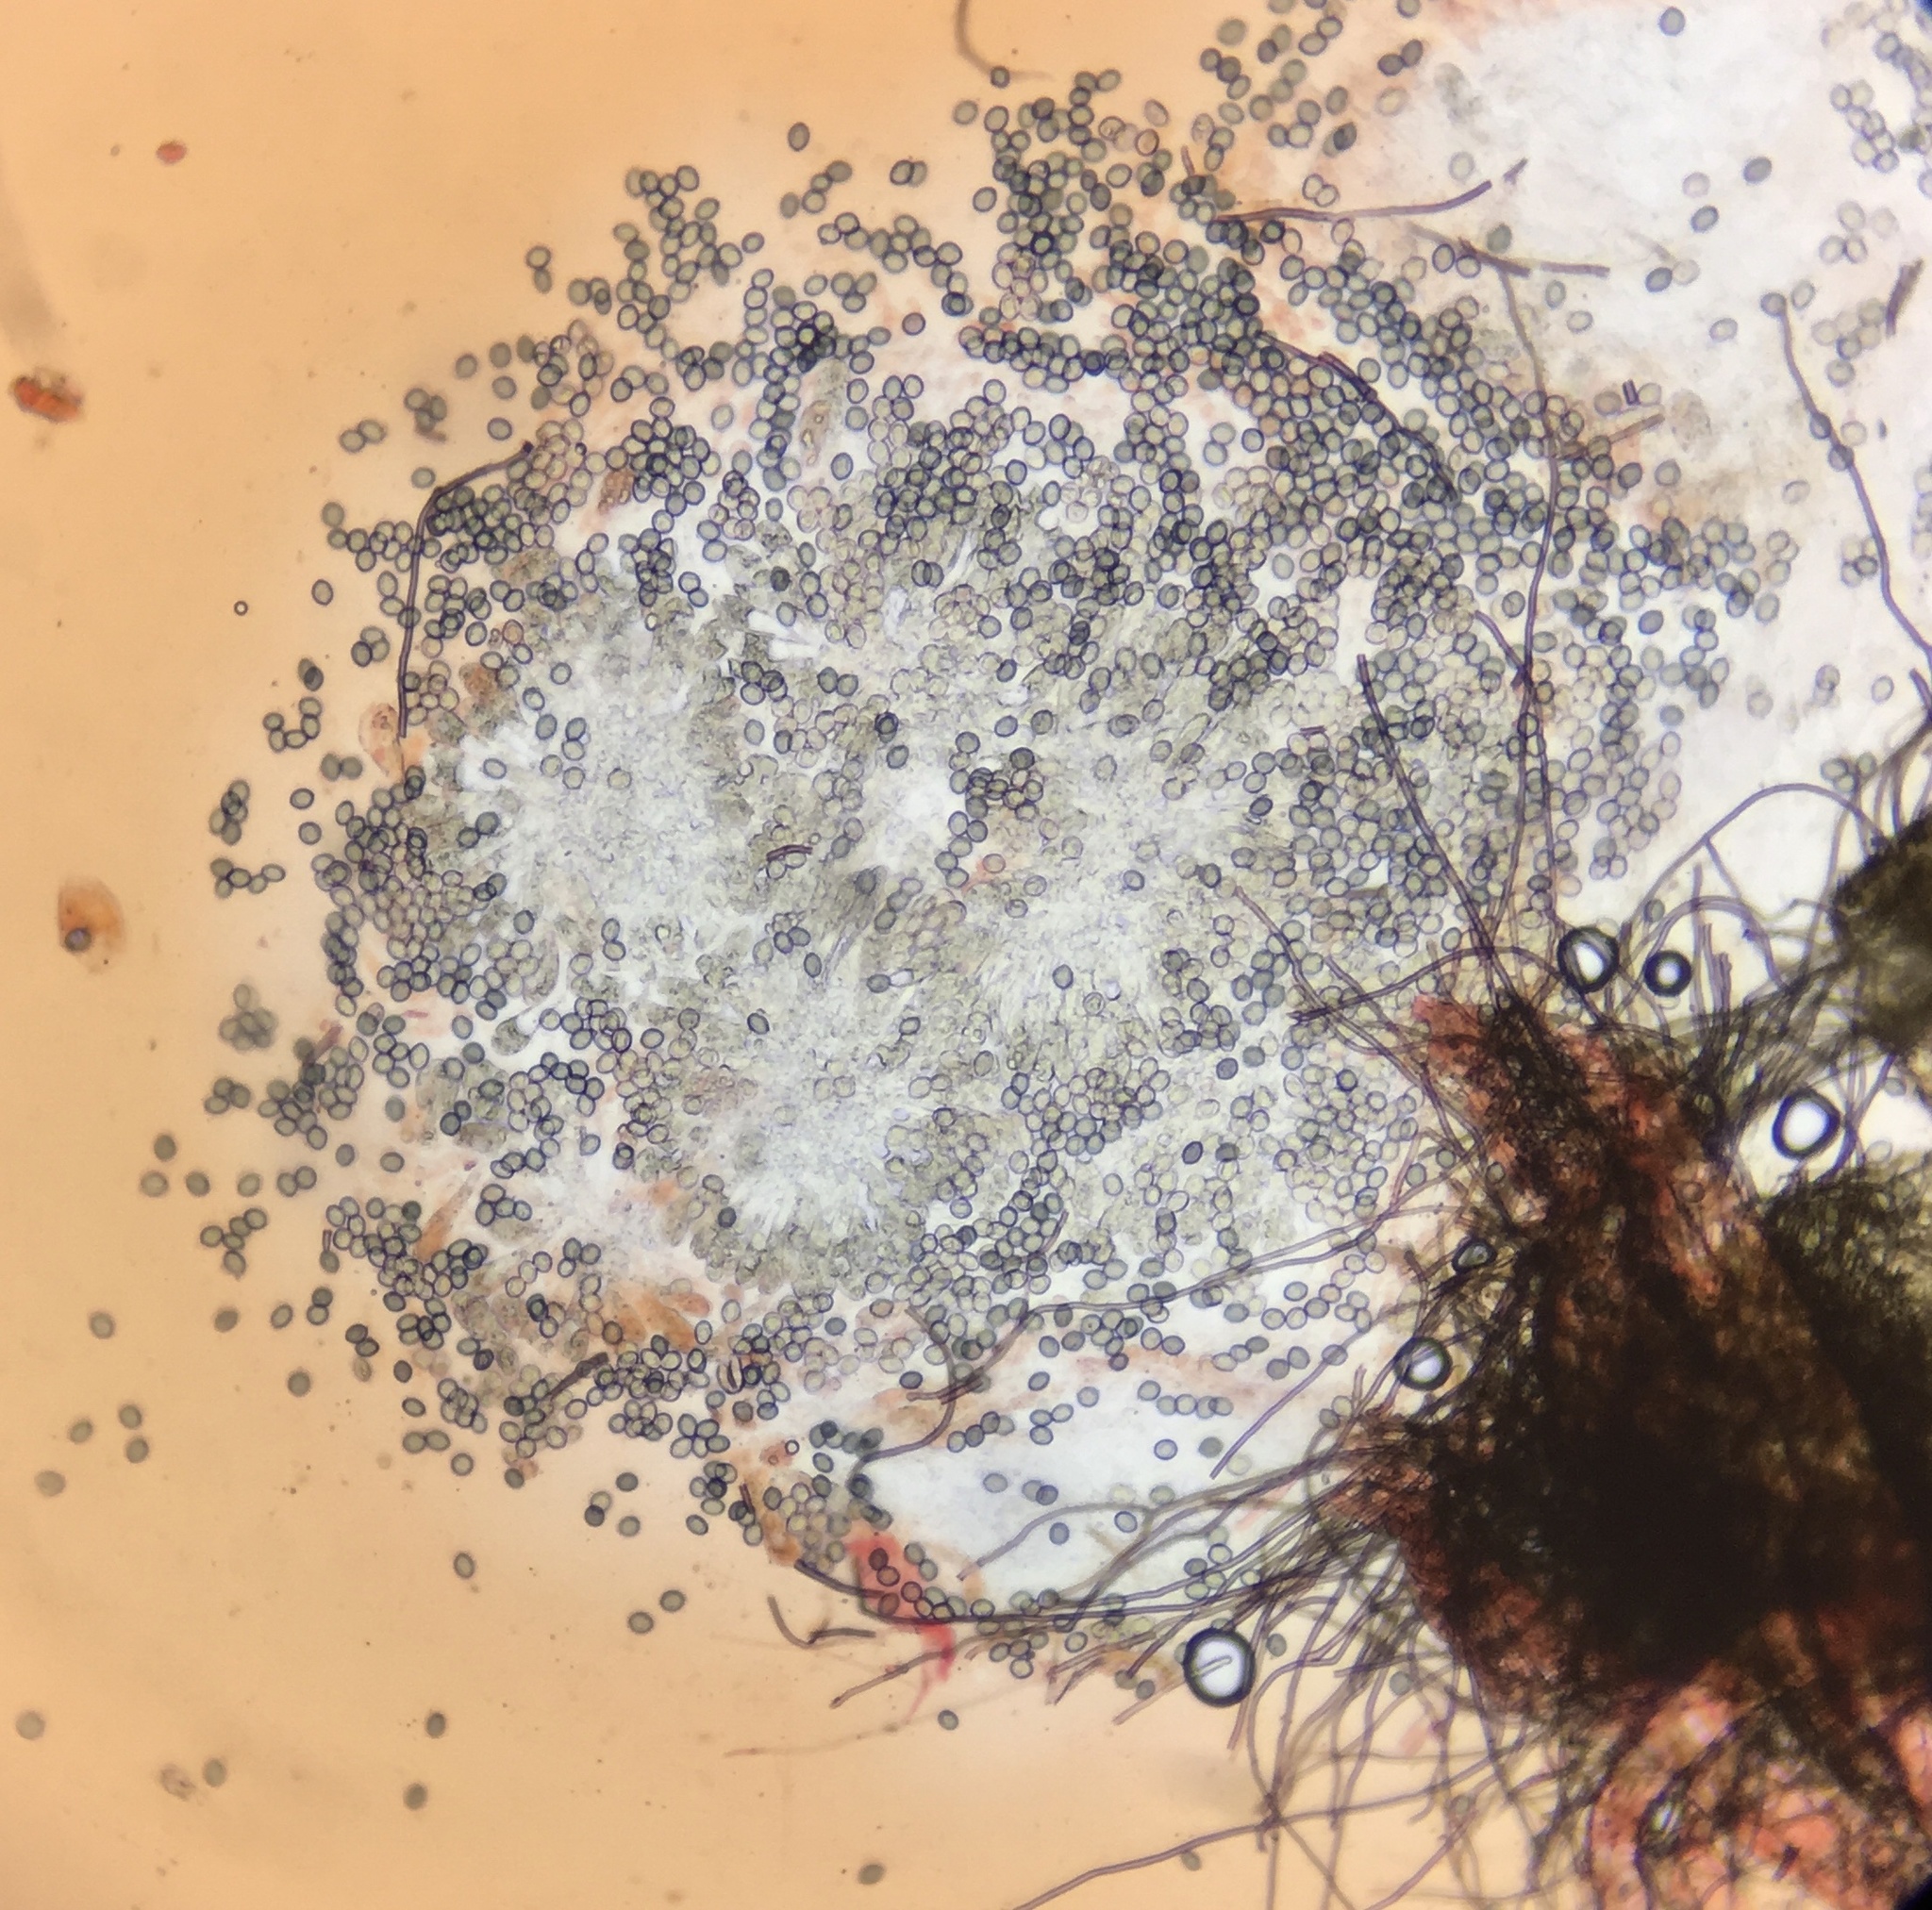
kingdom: Fungi
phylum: Ascomycota
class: Sordariomycetes
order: Sordariales
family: Chaetomiaceae
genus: Chaetomium
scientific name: Chaetomium globosum
